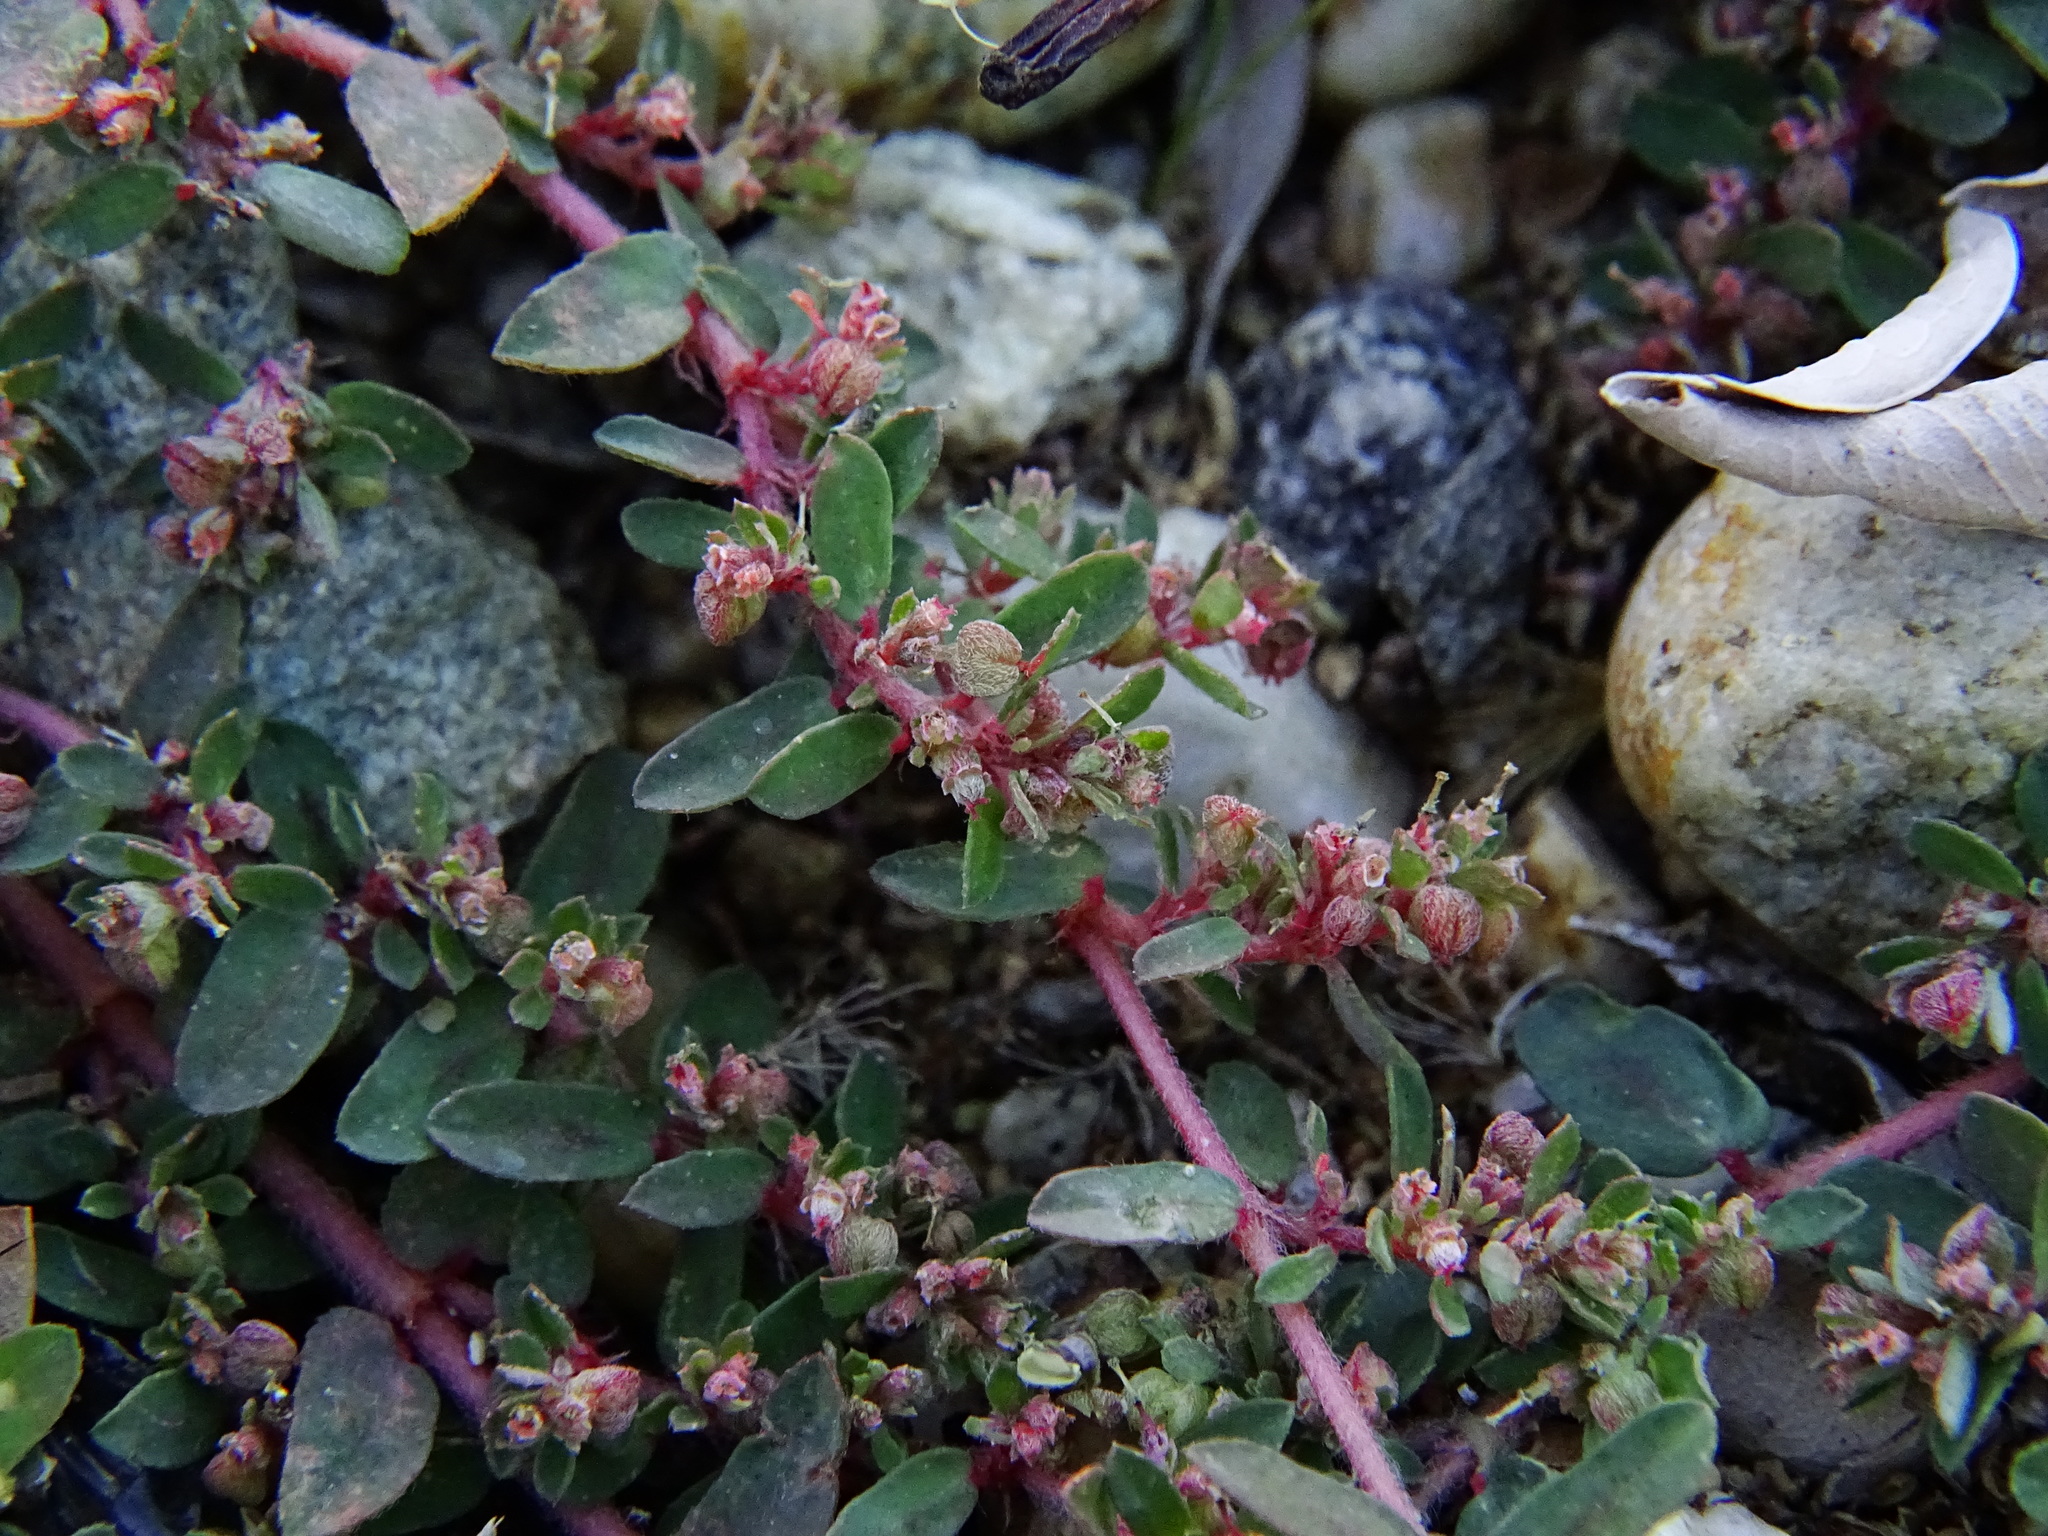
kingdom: Plantae
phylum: Tracheophyta
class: Magnoliopsida
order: Malpighiales
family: Euphorbiaceae
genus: Euphorbia
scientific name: Euphorbia maculata
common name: Spotted spurge
